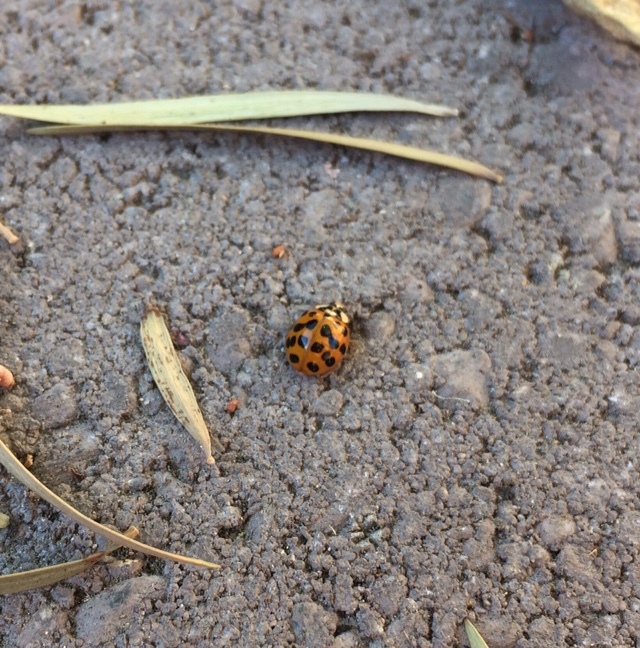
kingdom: Animalia
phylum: Arthropoda
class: Insecta
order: Coleoptera
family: Coccinellidae
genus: Harmonia
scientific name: Harmonia axyridis
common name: Harlequin ladybird
